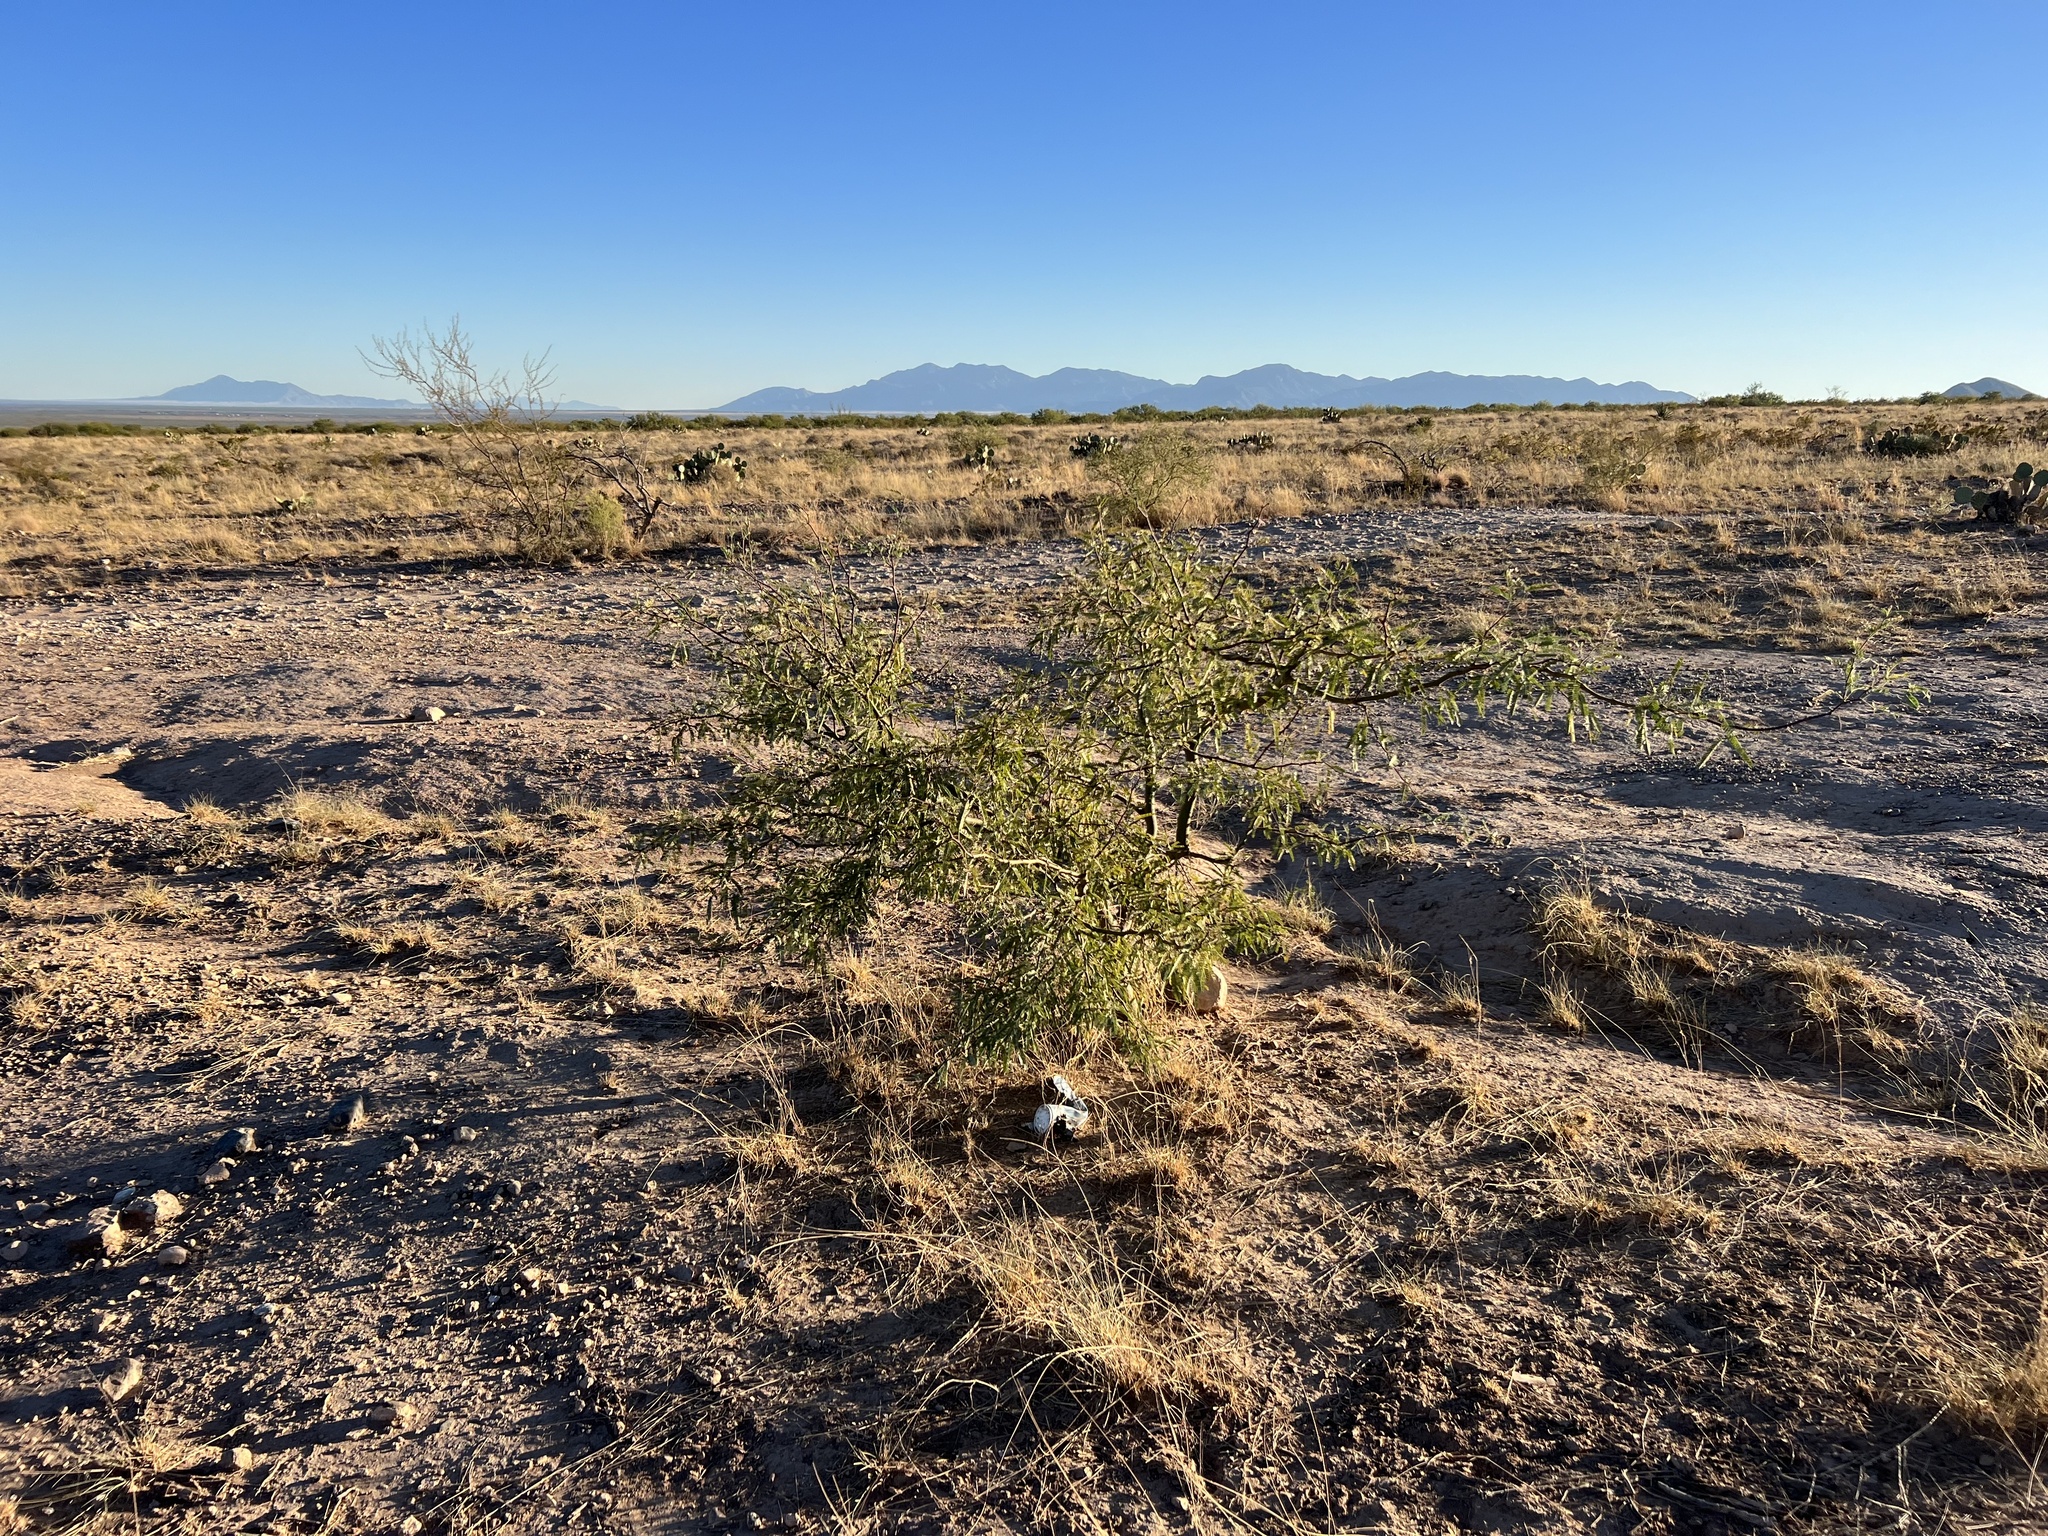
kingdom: Plantae
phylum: Tracheophyta
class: Magnoliopsida
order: Fabales
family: Fabaceae
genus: Prosopis
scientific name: Prosopis velutina
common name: Velvet mesquite
